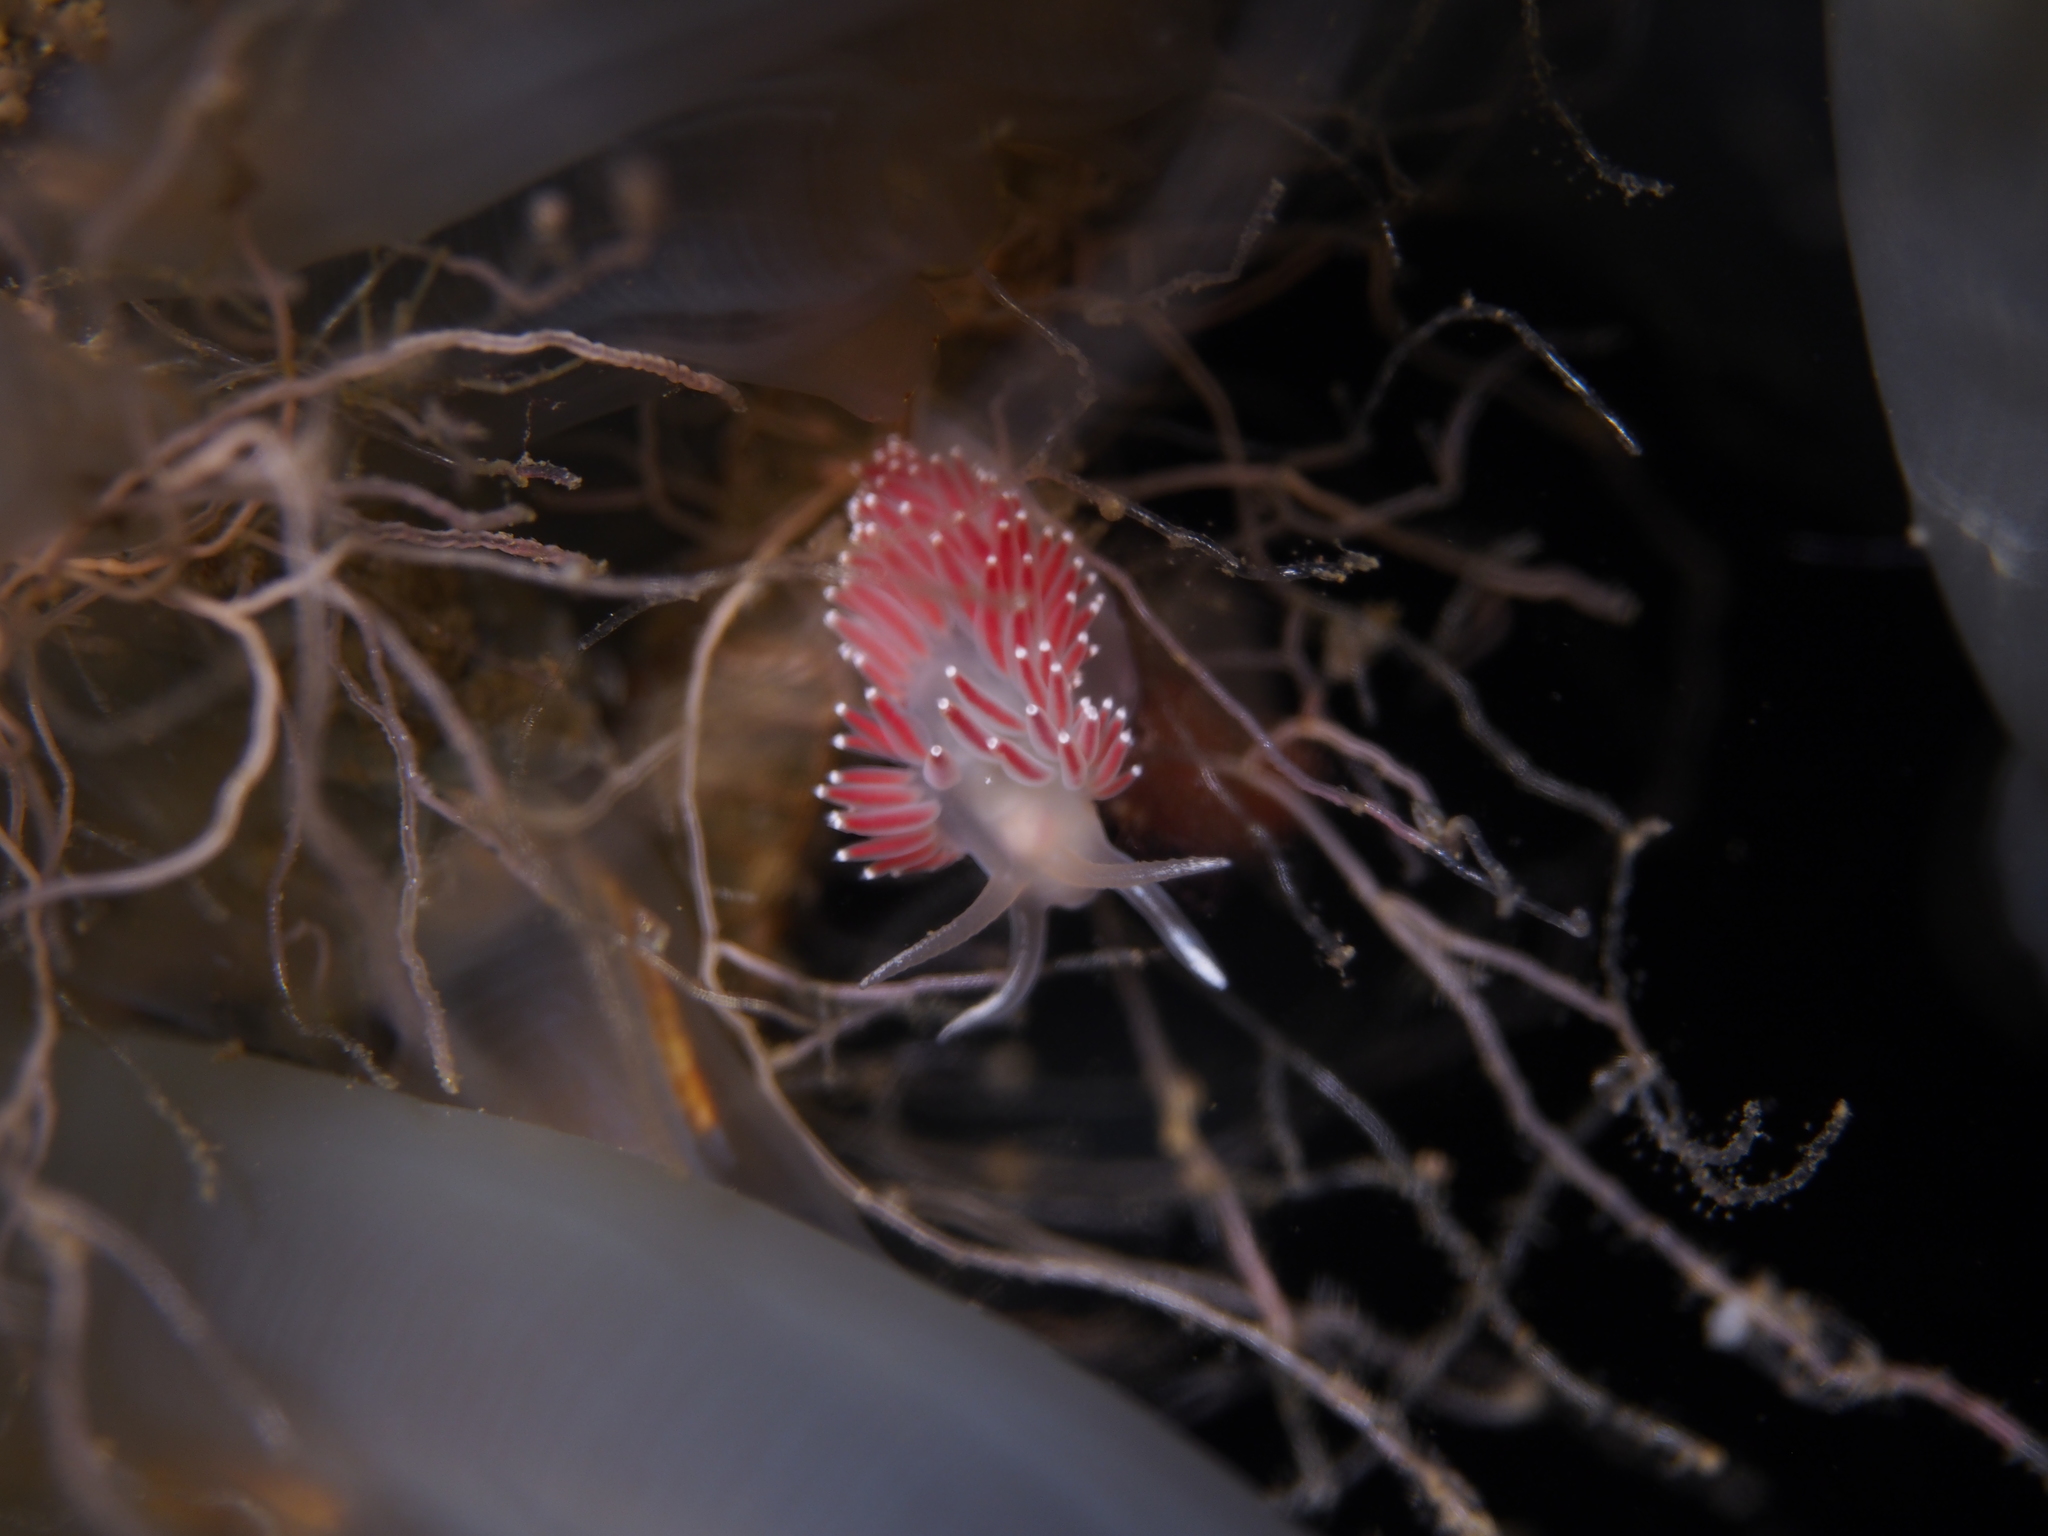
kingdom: Animalia
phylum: Mollusca
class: Gastropoda
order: Nudibranchia
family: Coryphellidae
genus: Coryphella
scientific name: Coryphella verrucosa
